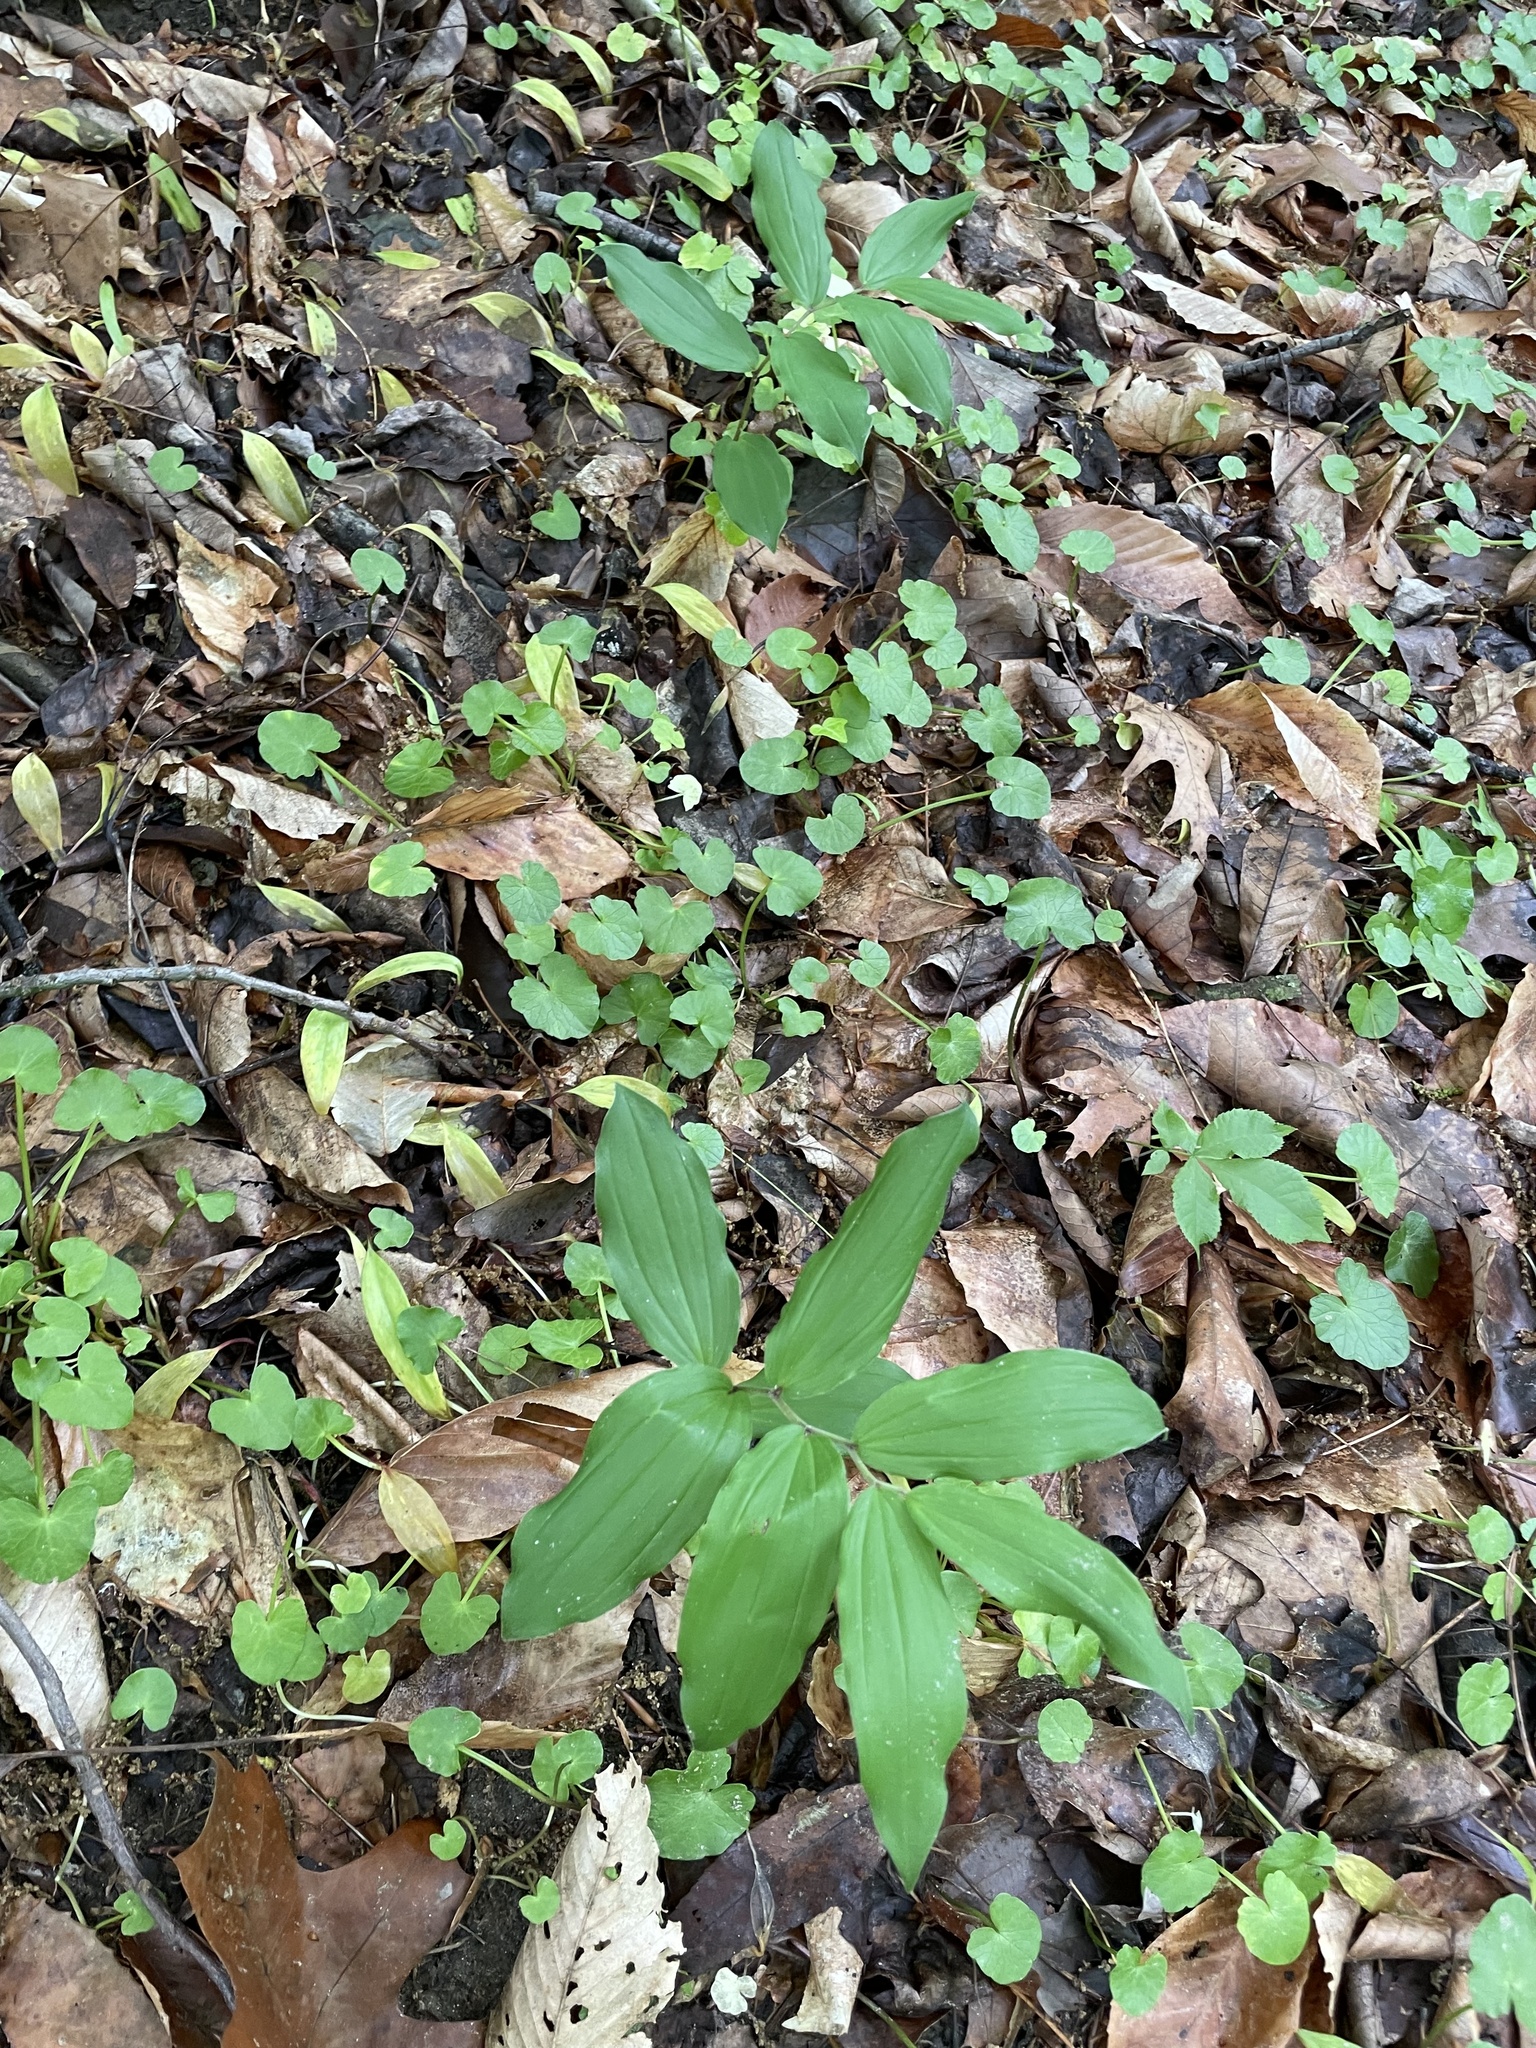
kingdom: Plantae
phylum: Tracheophyta
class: Liliopsida
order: Asparagales
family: Asparagaceae
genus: Maianthemum
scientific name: Maianthemum racemosum
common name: False spikenard
